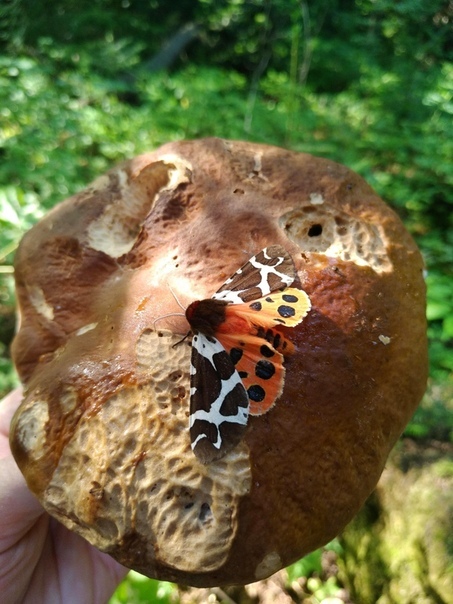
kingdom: Animalia
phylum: Arthropoda
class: Insecta
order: Lepidoptera
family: Erebidae
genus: Arctia
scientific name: Arctia caja
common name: Garden tiger
